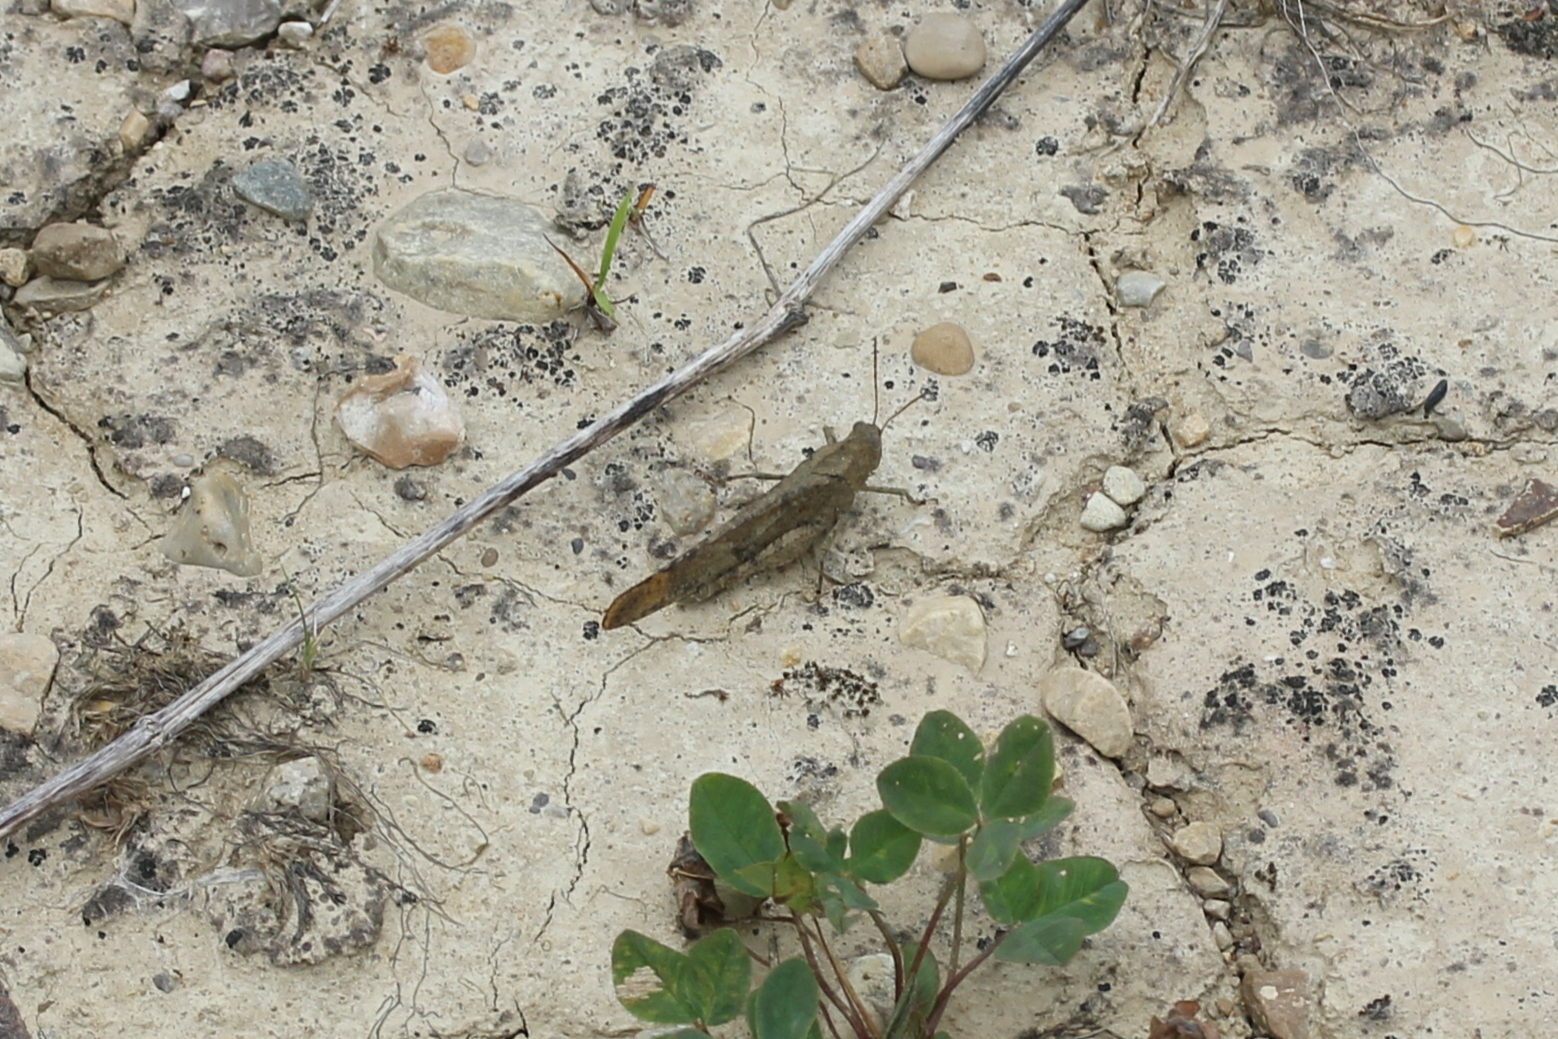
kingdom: Animalia
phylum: Arthropoda
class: Insecta
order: Orthoptera
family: Acrididae
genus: Dissosteira
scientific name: Dissosteira carolina
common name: Carolina grasshopper
